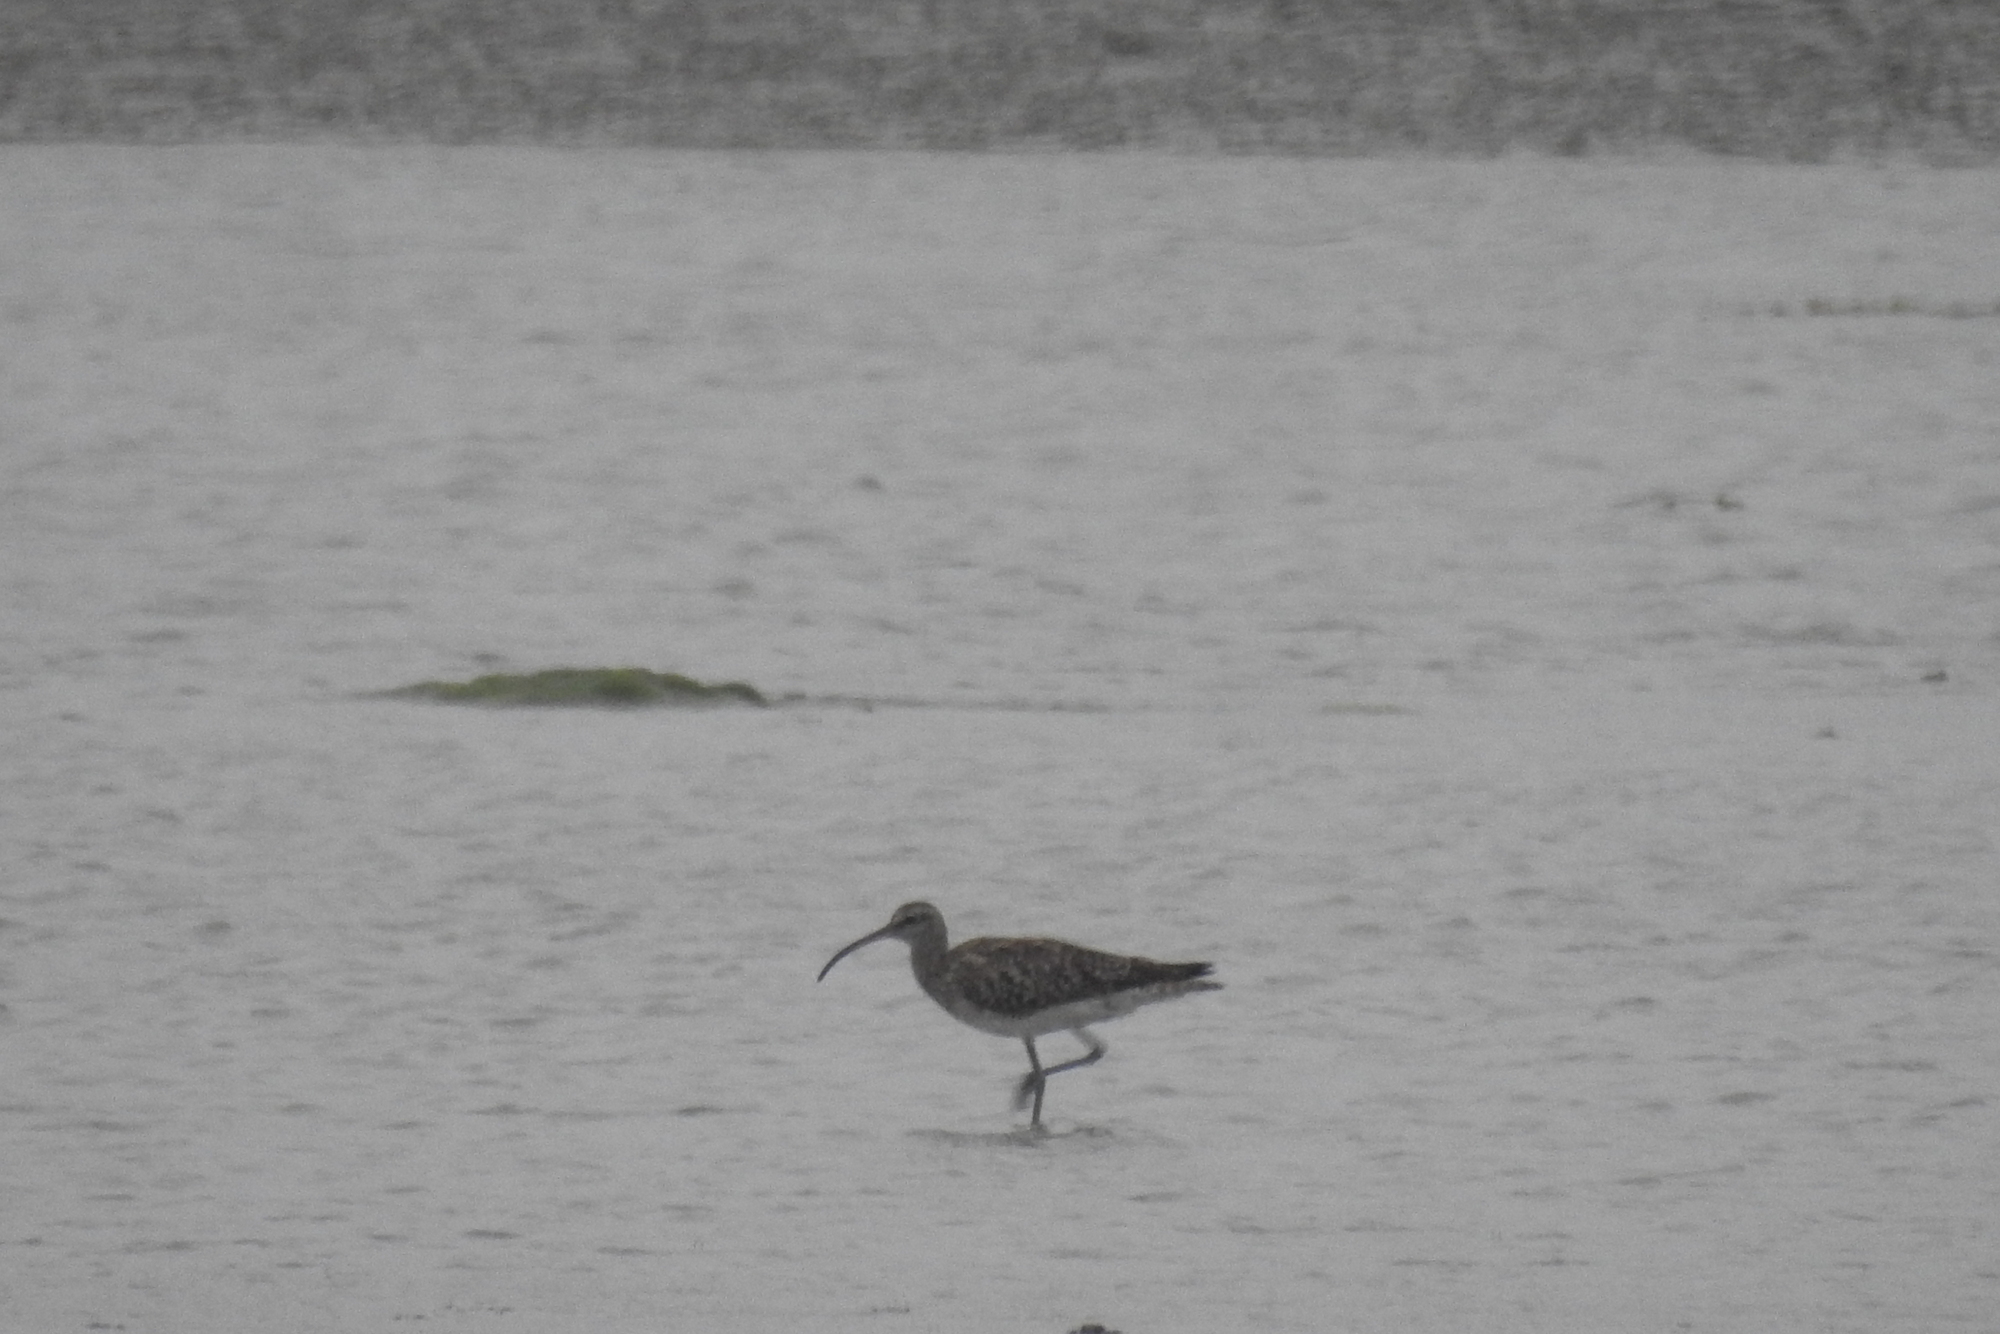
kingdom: Animalia
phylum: Chordata
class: Aves
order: Charadriiformes
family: Scolopacidae
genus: Numenius
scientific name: Numenius phaeopus
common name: Whimbrel
